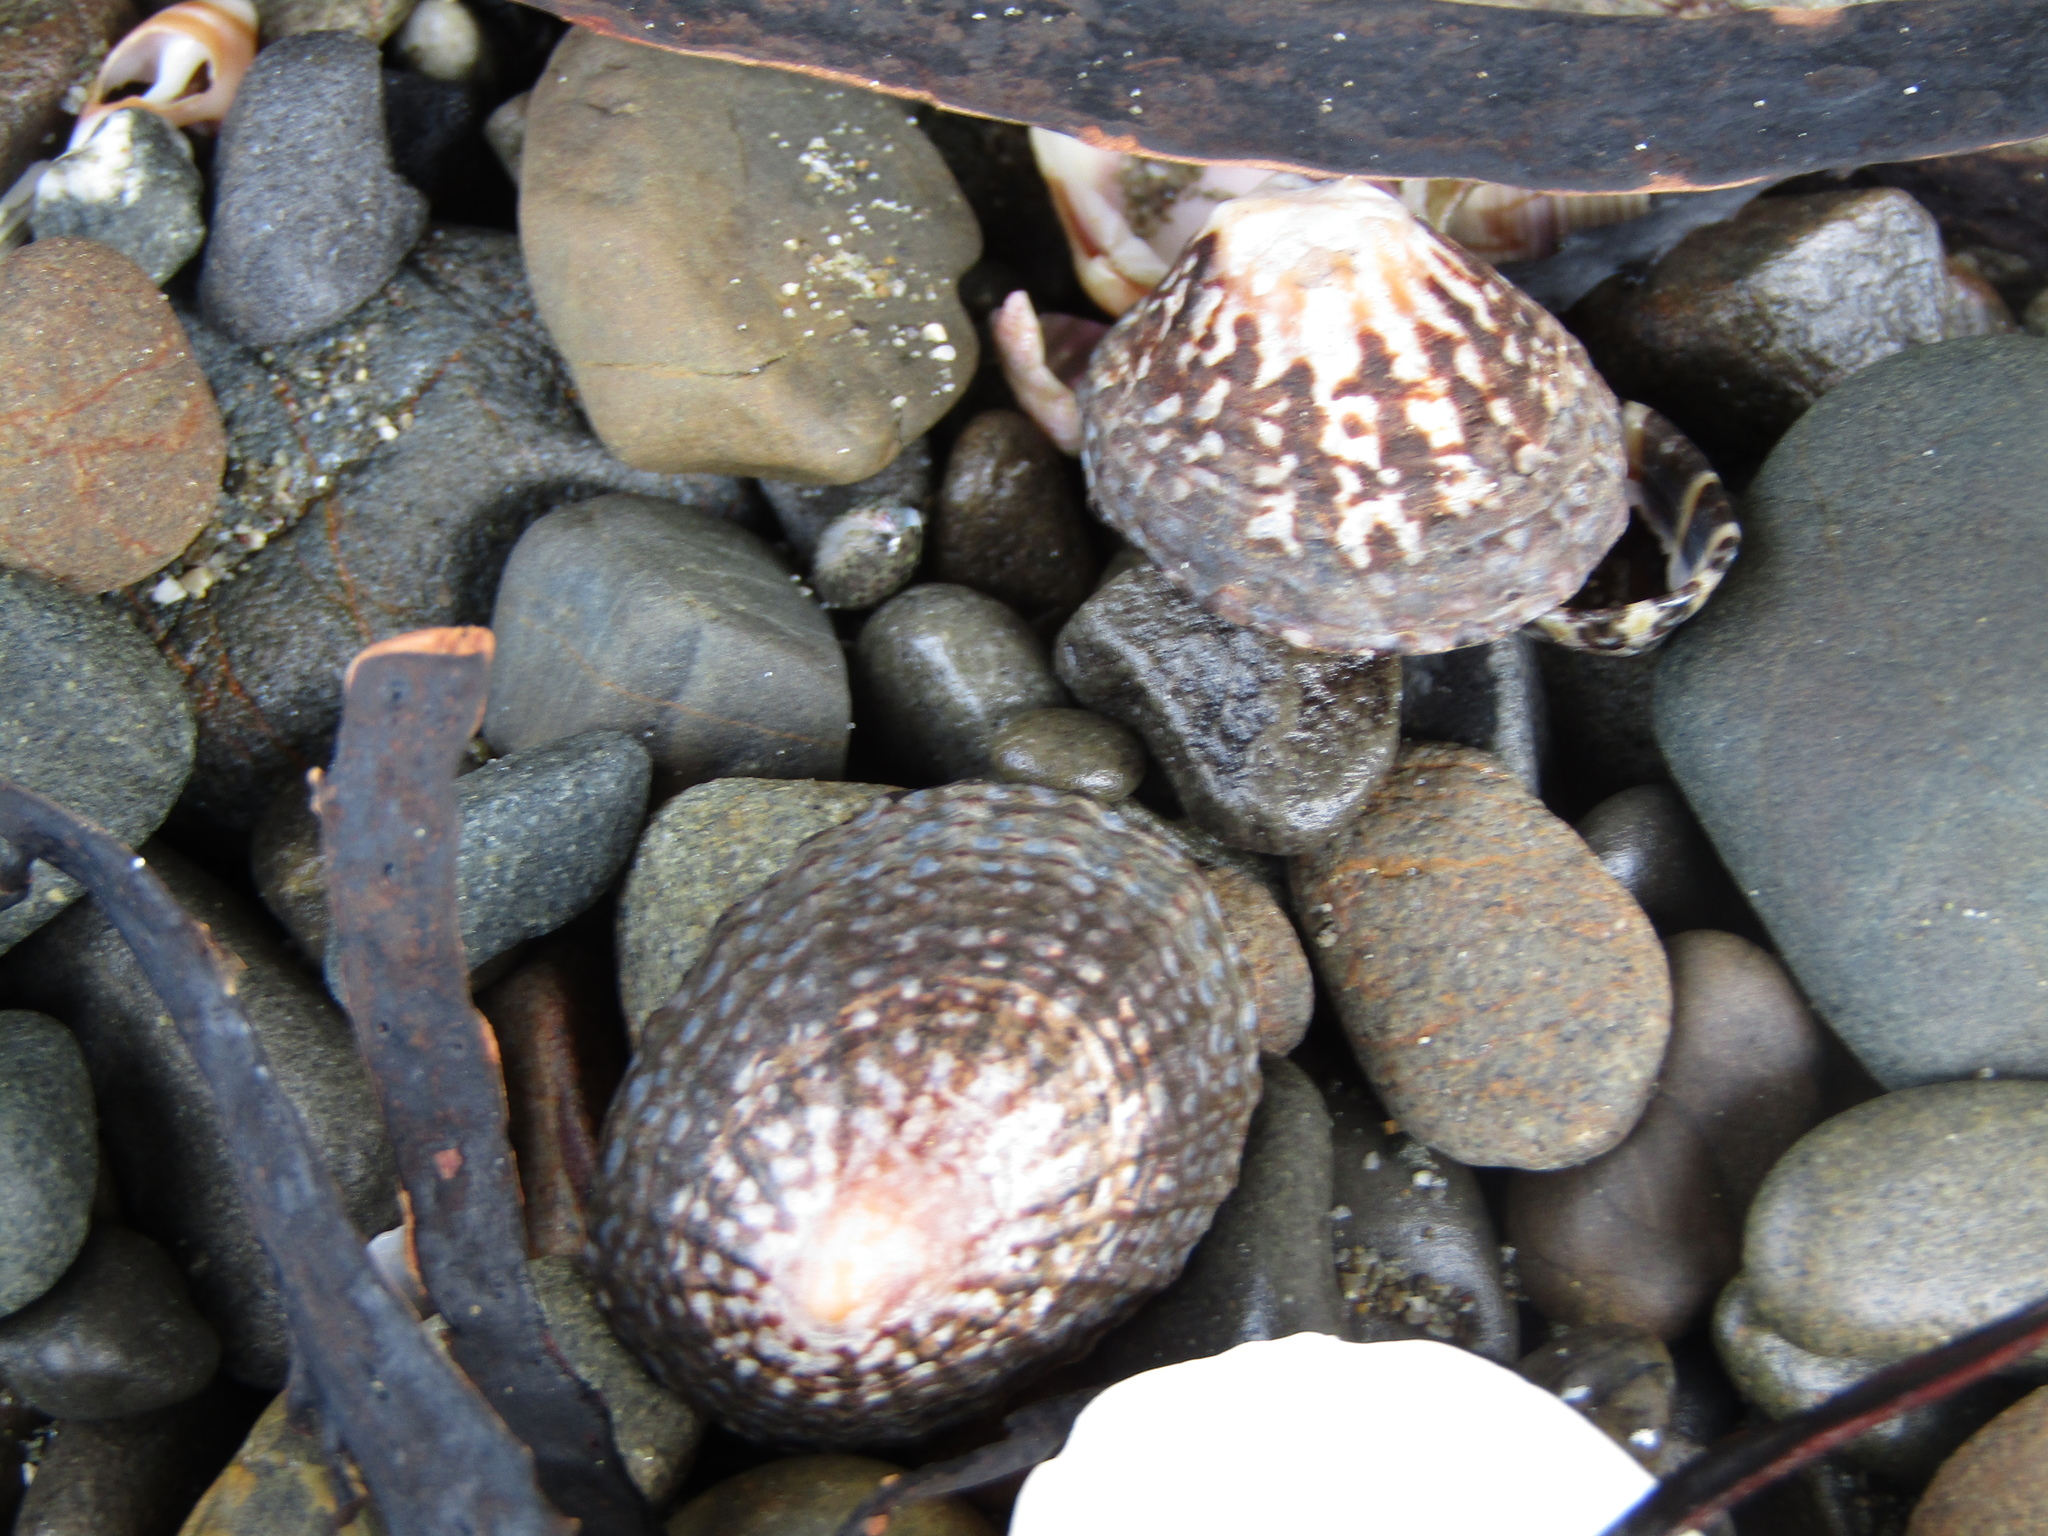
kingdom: Animalia
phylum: Mollusca
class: Gastropoda
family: Nacellidae
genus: Cellana
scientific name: Cellana denticulata
